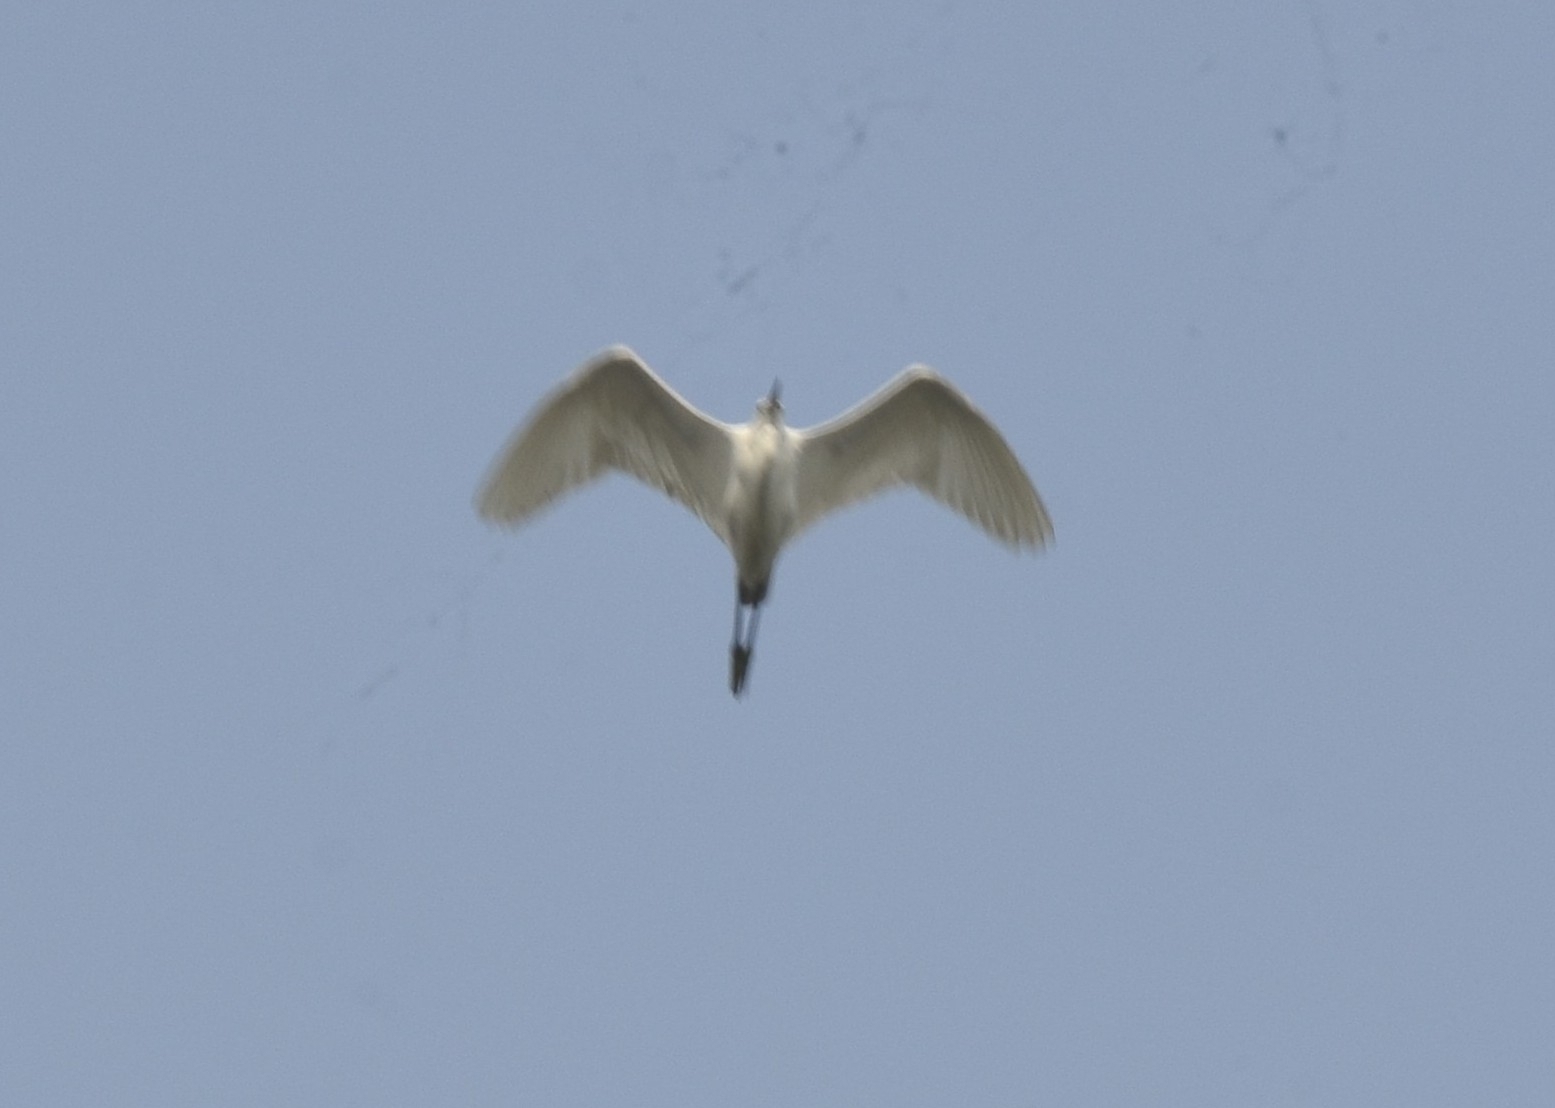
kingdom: Animalia
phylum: Chordata
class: Aves
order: Pelecaniformes
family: Ardeidae
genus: Egretta
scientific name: Egretta garzetta
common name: Little egret
